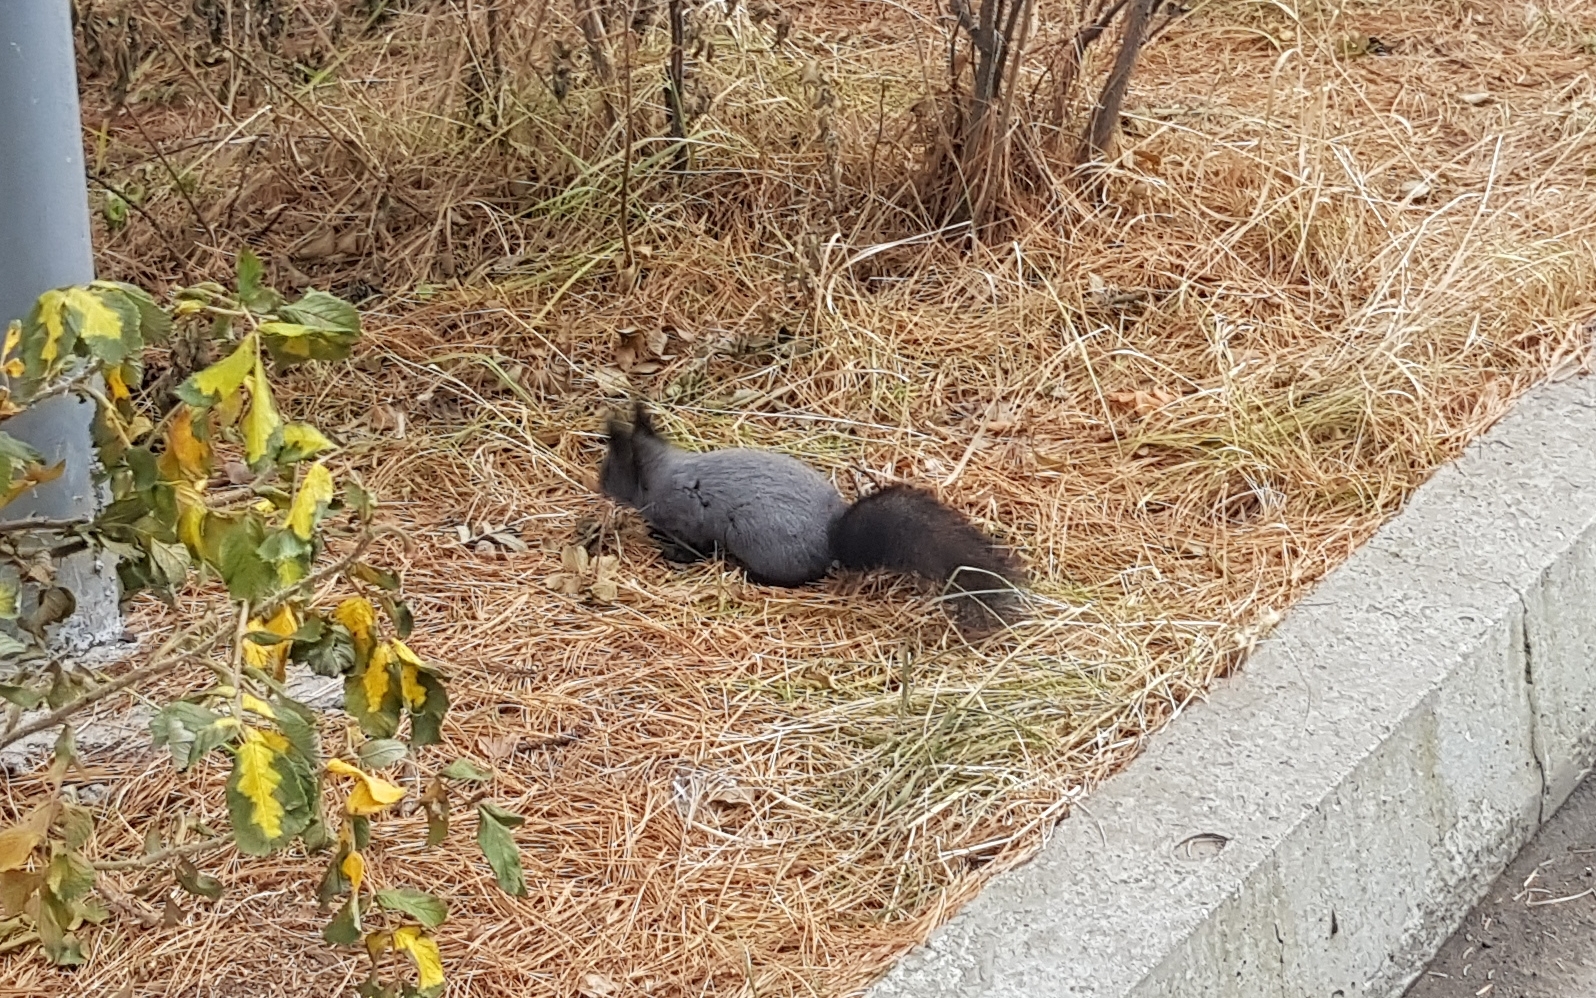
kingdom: Animalia
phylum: Chordata
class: Mammalia
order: Rodentia
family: Sciuridae
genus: Sciurus
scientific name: Sciurus vulgaris
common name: Eurasian red squirrel
